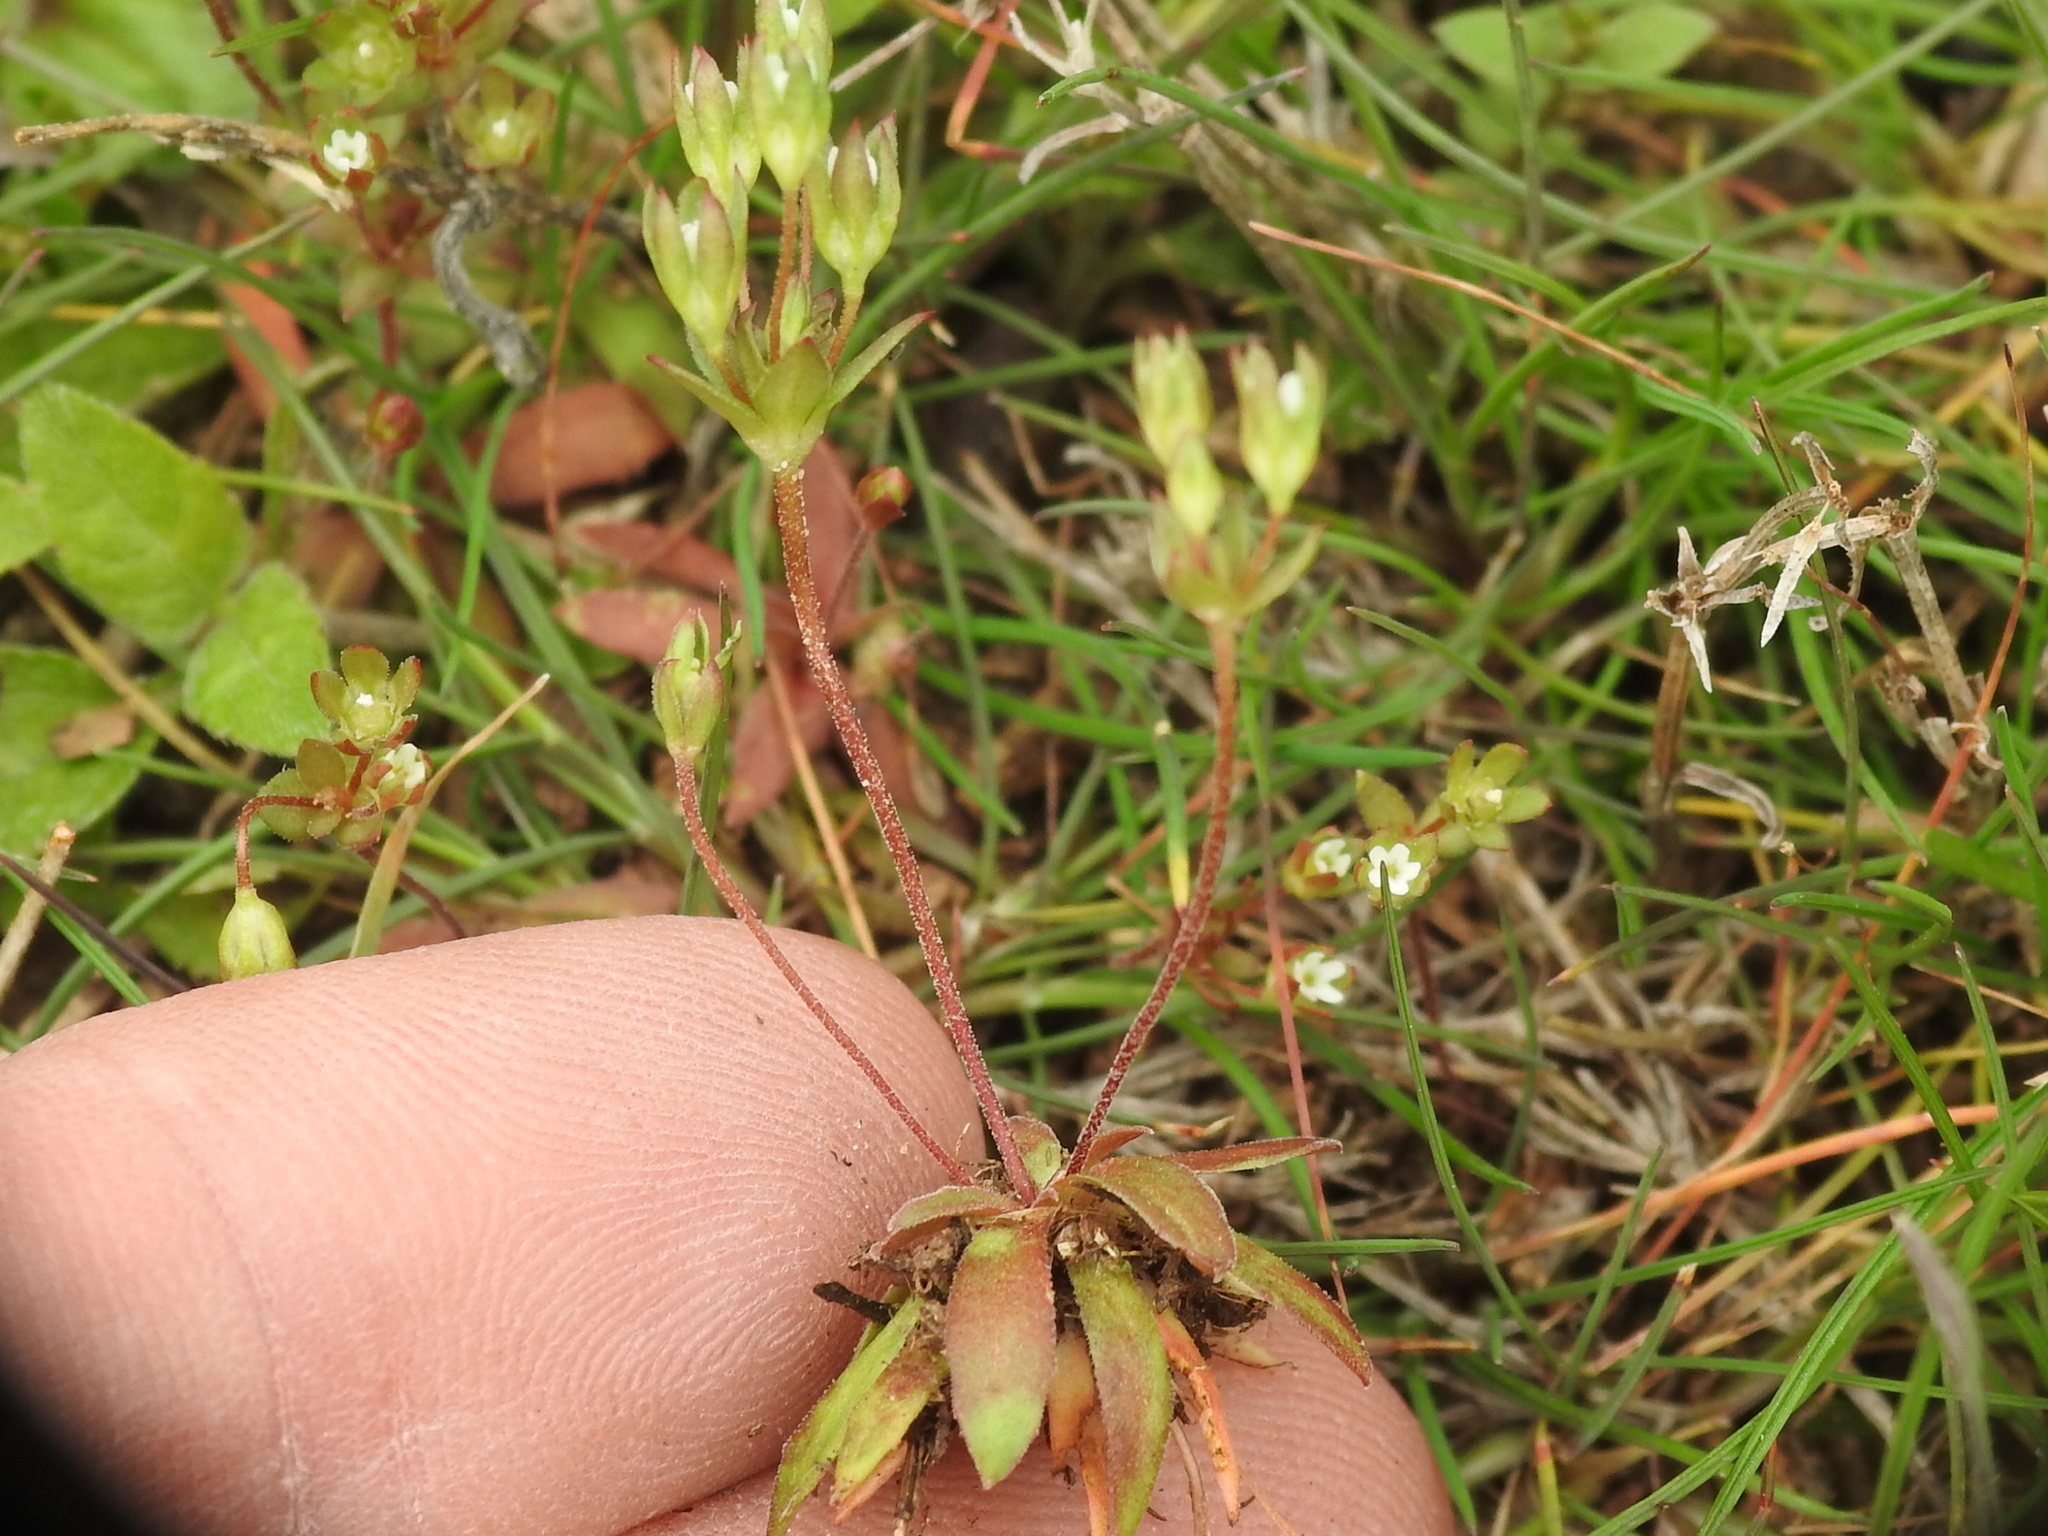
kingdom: Plantae
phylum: Tracheophyta
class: Magnoliopsida
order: Ericales
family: Primulaceae
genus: Androsace
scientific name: Androsace occidentalis
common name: West rock-jasmine
